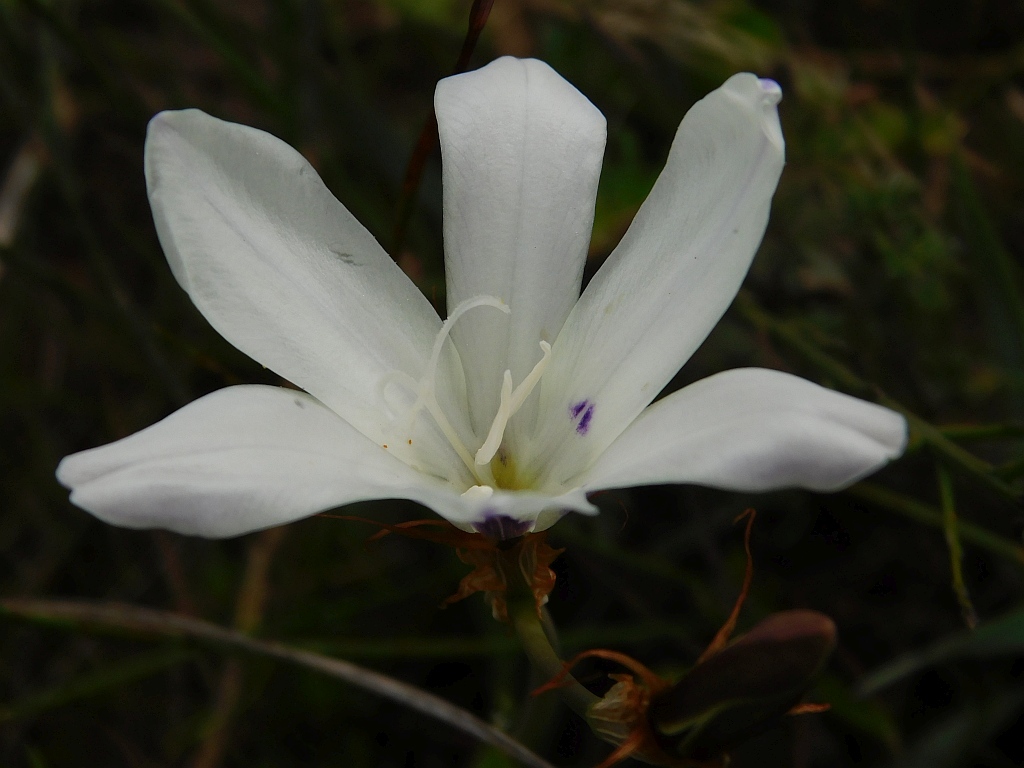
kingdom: Plantae
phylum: Tracheophyta
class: Liliopsida
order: Asparagales
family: Iridaceae
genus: Sparaxis
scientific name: Sparaxis grandiflora
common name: Plain harlequin-flower
